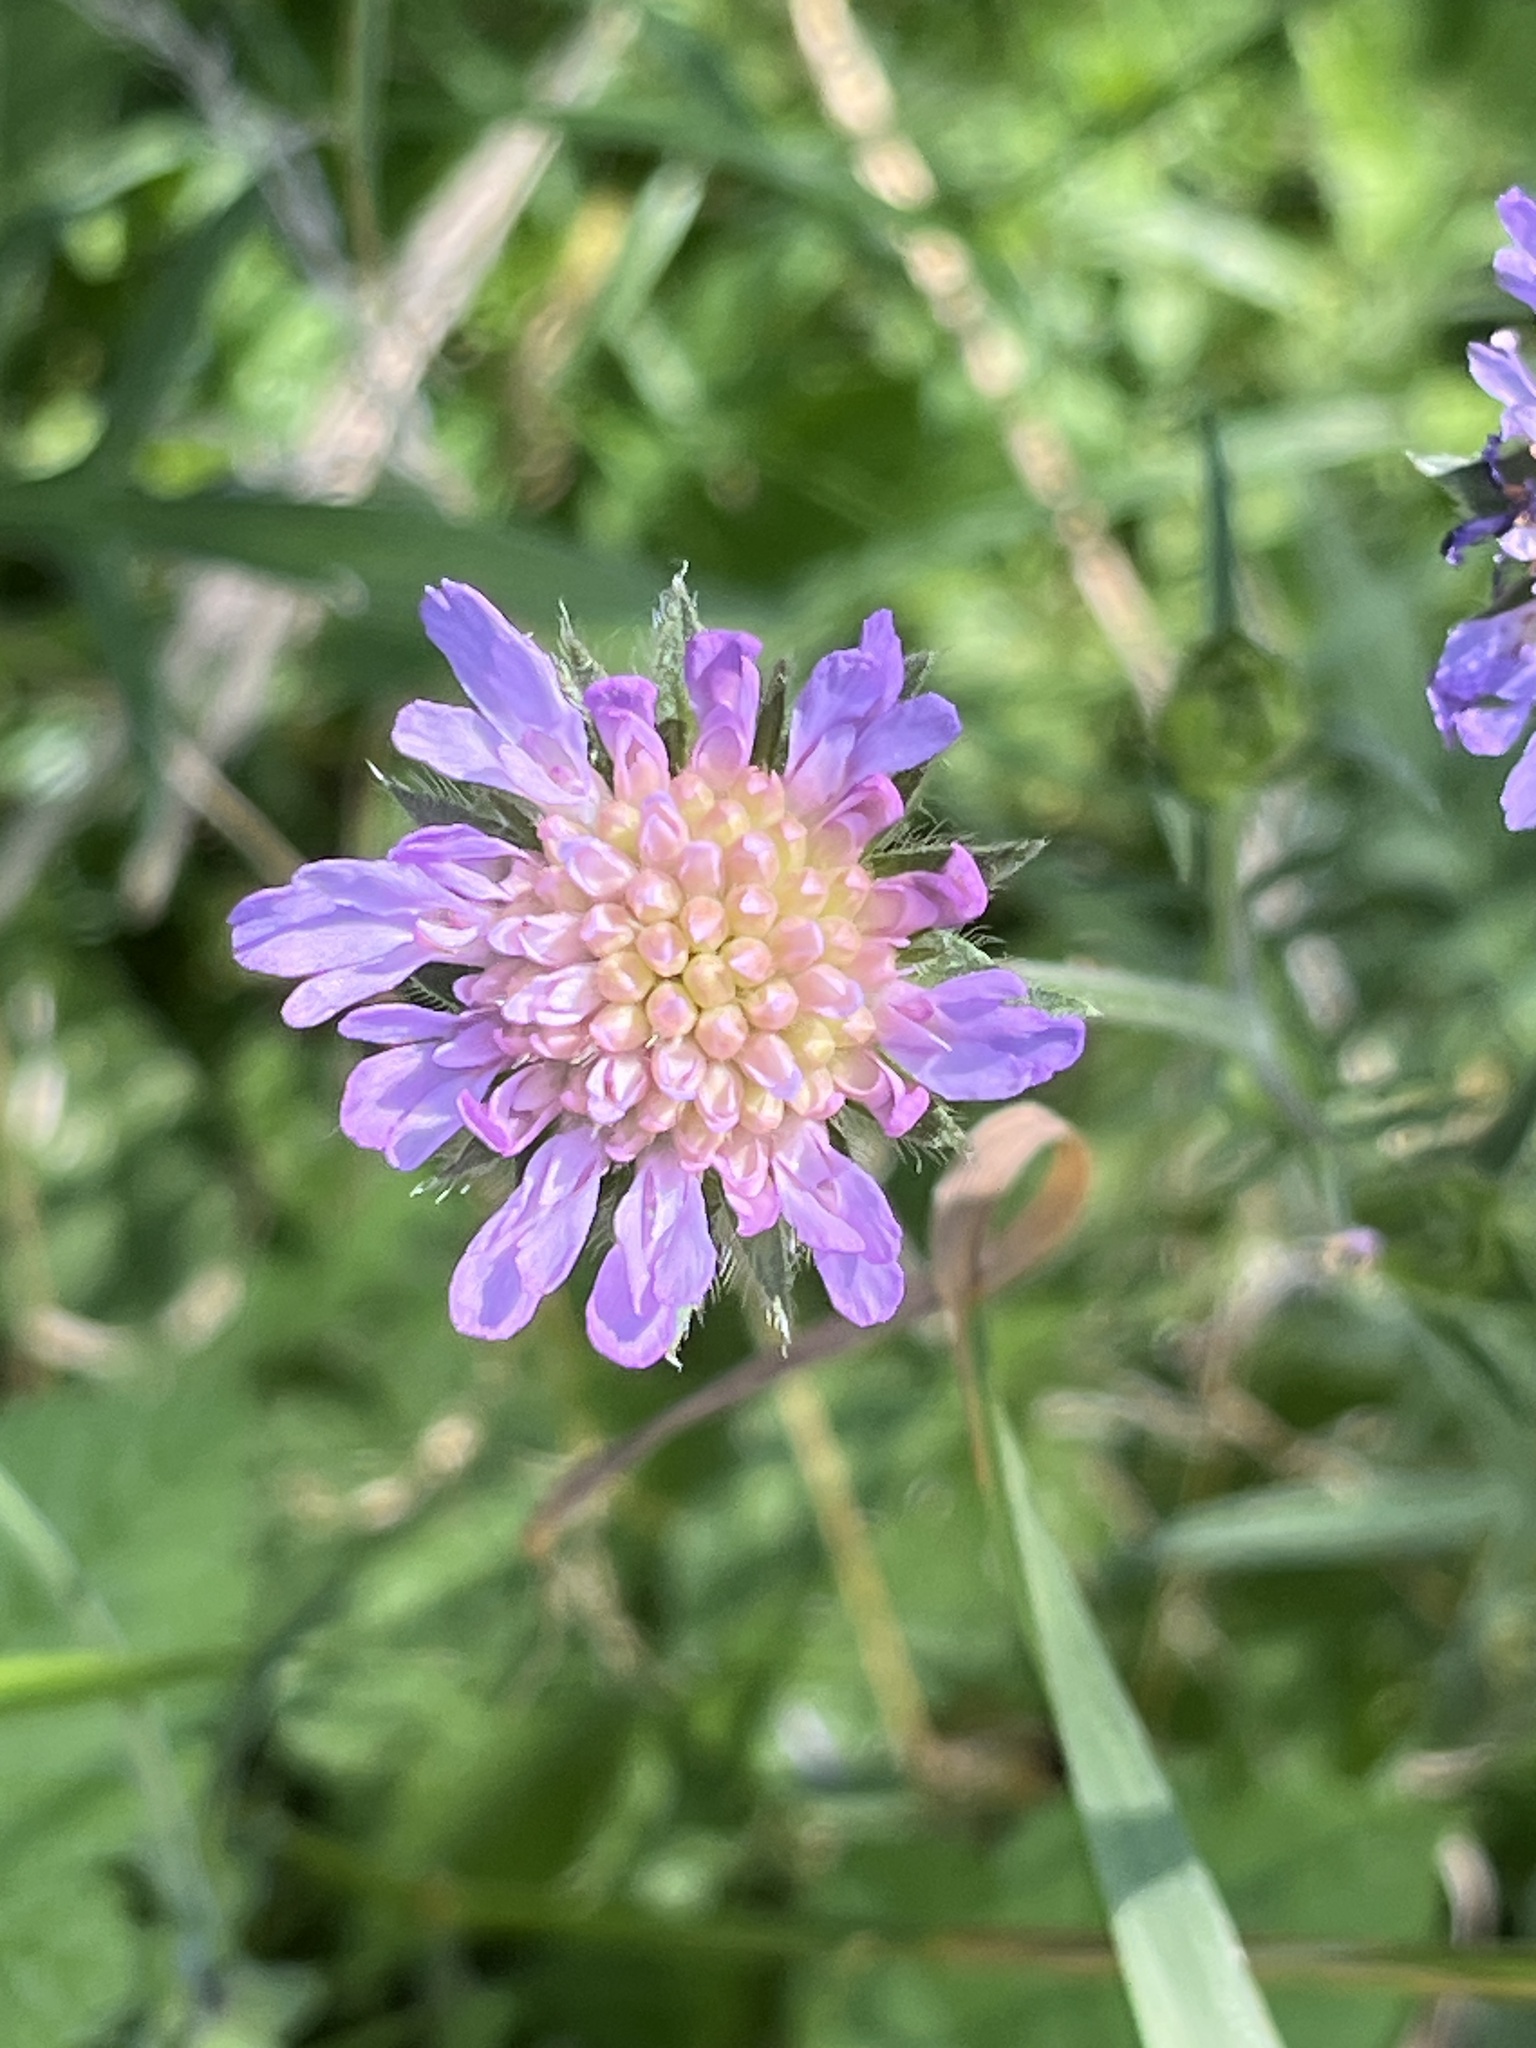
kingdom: Plantae
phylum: Tracheophyta
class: Magnoliopsida
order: Dipsacales
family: Caprifoliaceae
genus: Knautia
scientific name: Knautia arvensis
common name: Field scabiosa
